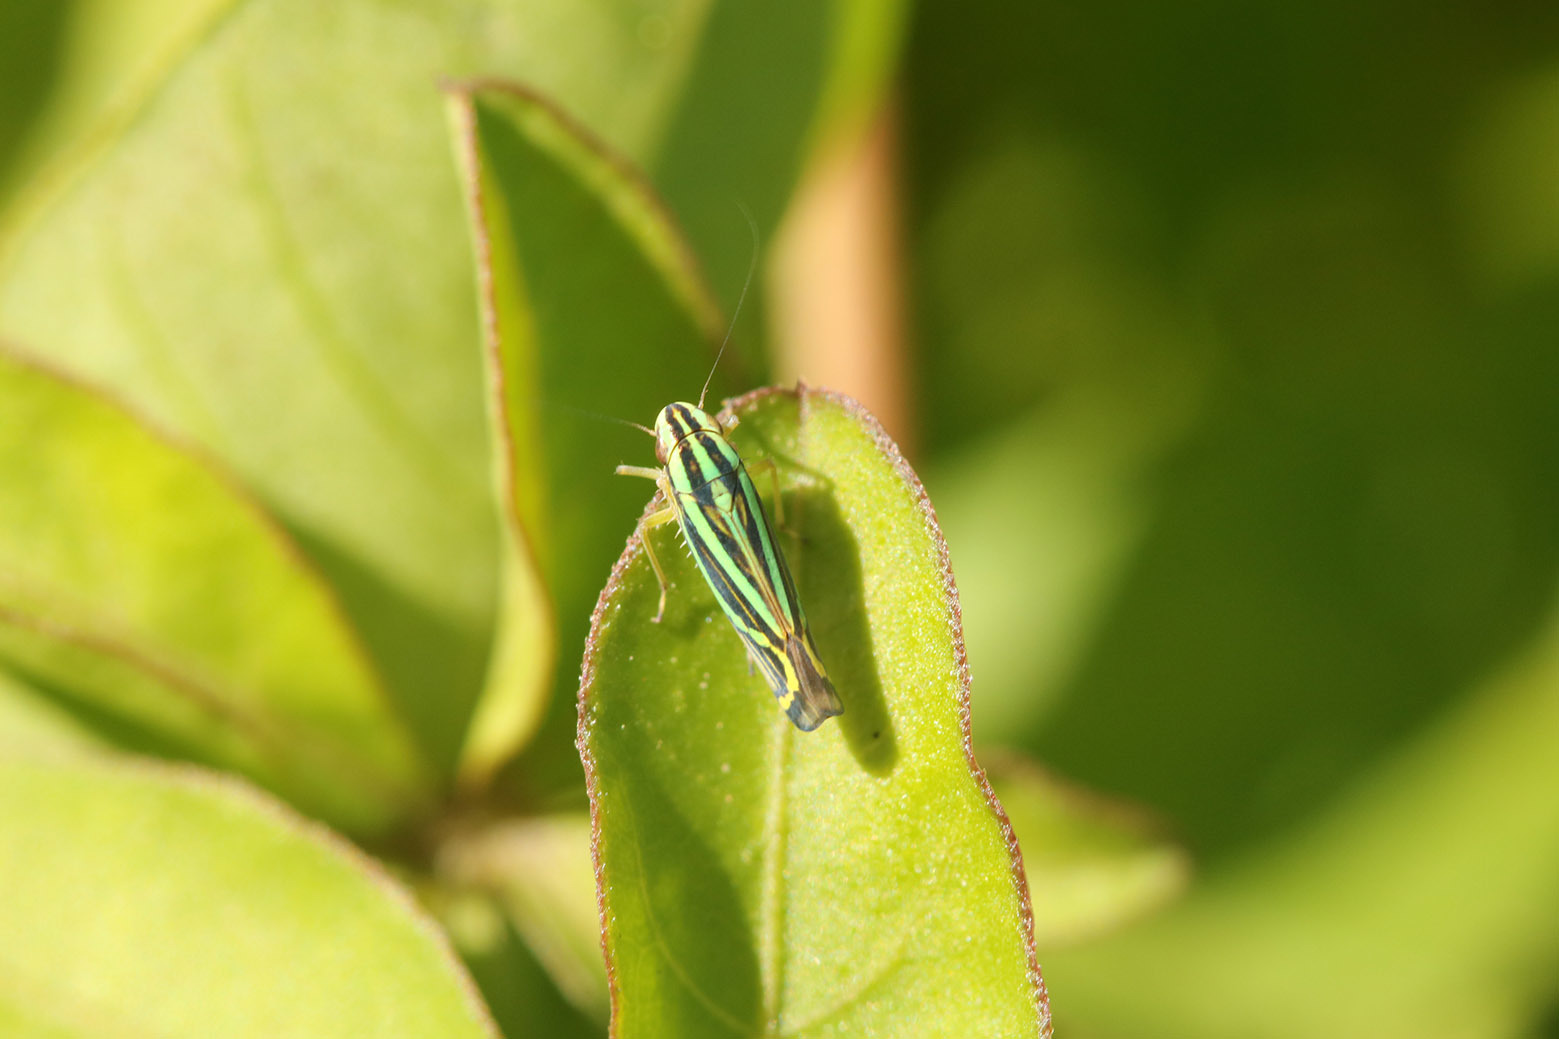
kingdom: Animalia
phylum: Arthropoda
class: Insecta
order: Hemiptera
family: Cicadellidae
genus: Sibovia
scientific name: Sibovia sagata
